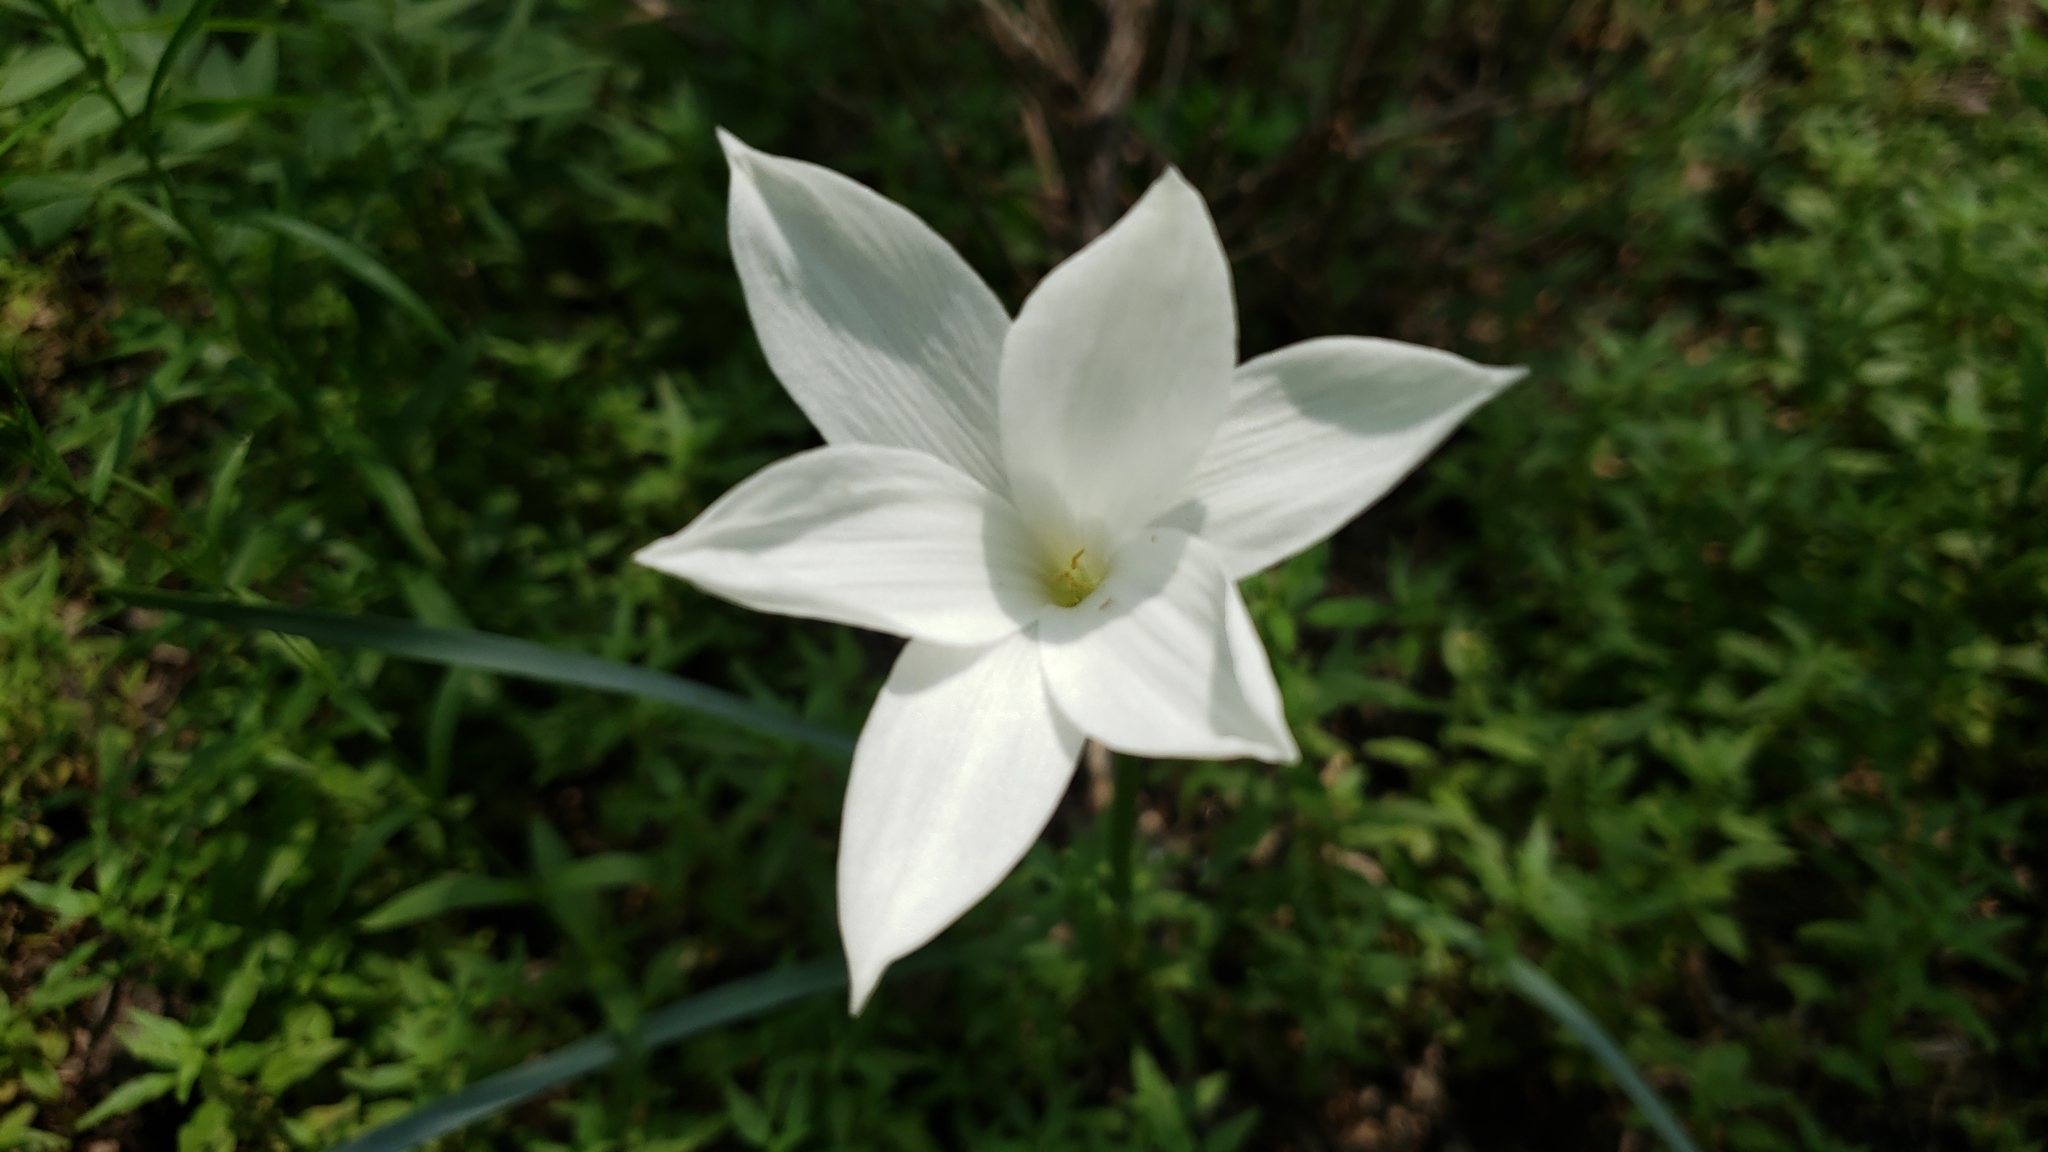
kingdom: Plantae
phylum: Tracheophyta
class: Liliopsida
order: Asparagales
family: Amaryllidaceae
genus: Zephyranthes
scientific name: Zephyranthes drummondii
